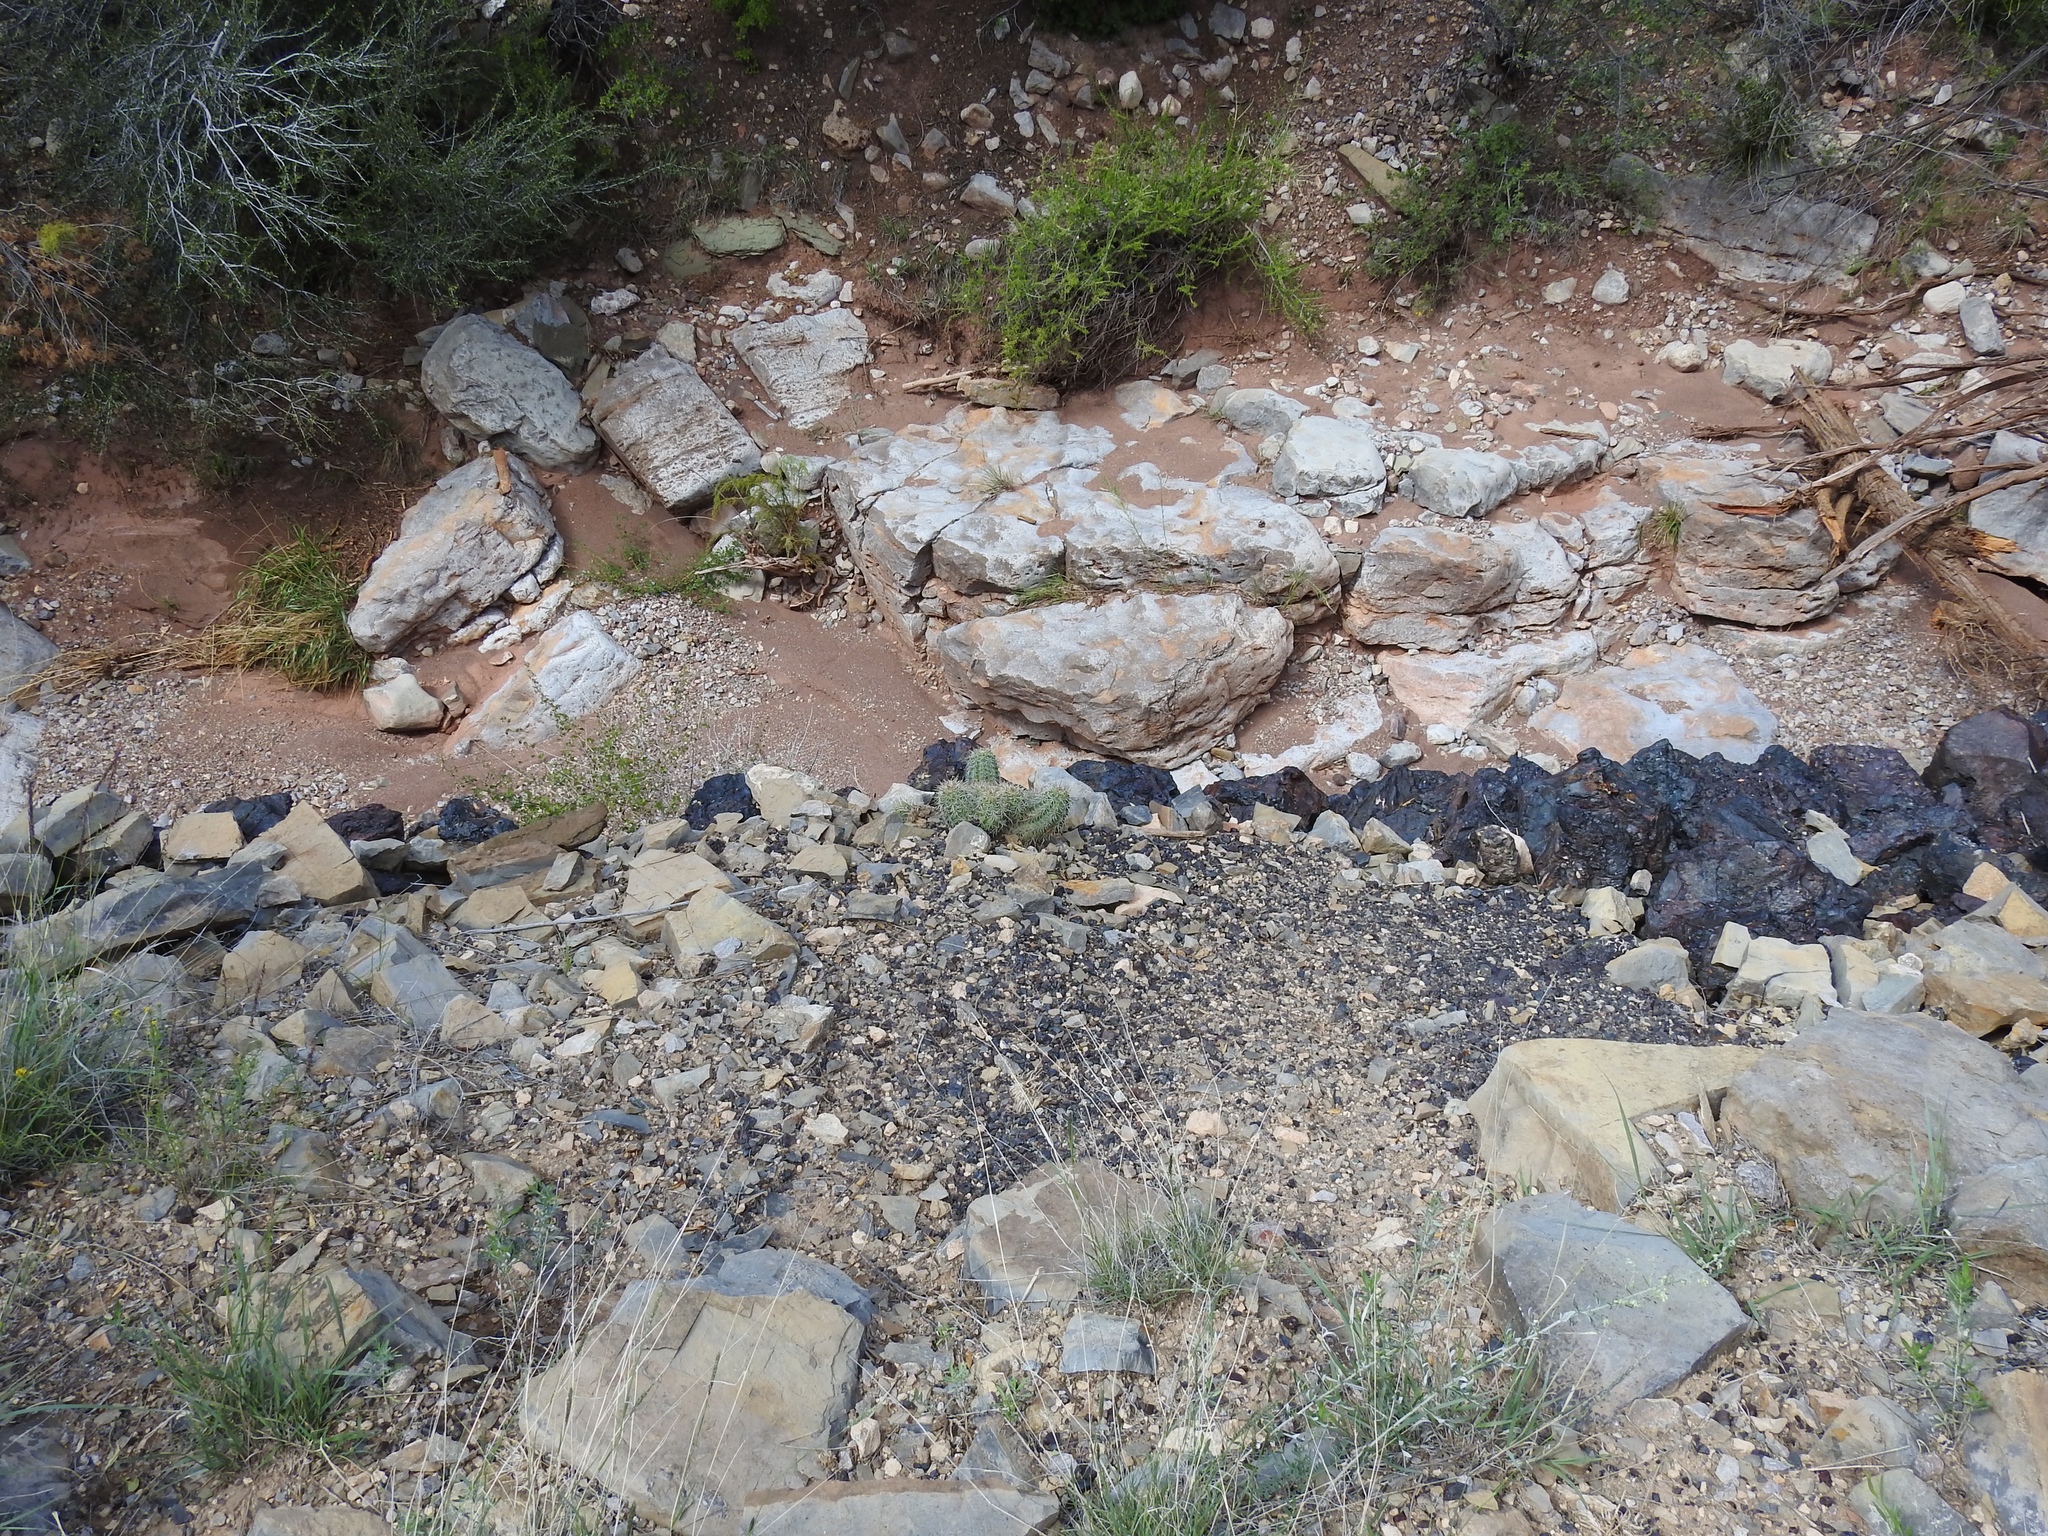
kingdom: Plantae
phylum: Tracheophyta
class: Magnoliopsida
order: Caryophyllales
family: Cactaceae
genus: Echinocereus
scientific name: Echinocereus coccineus
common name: Scarlet hedgehog cactus
